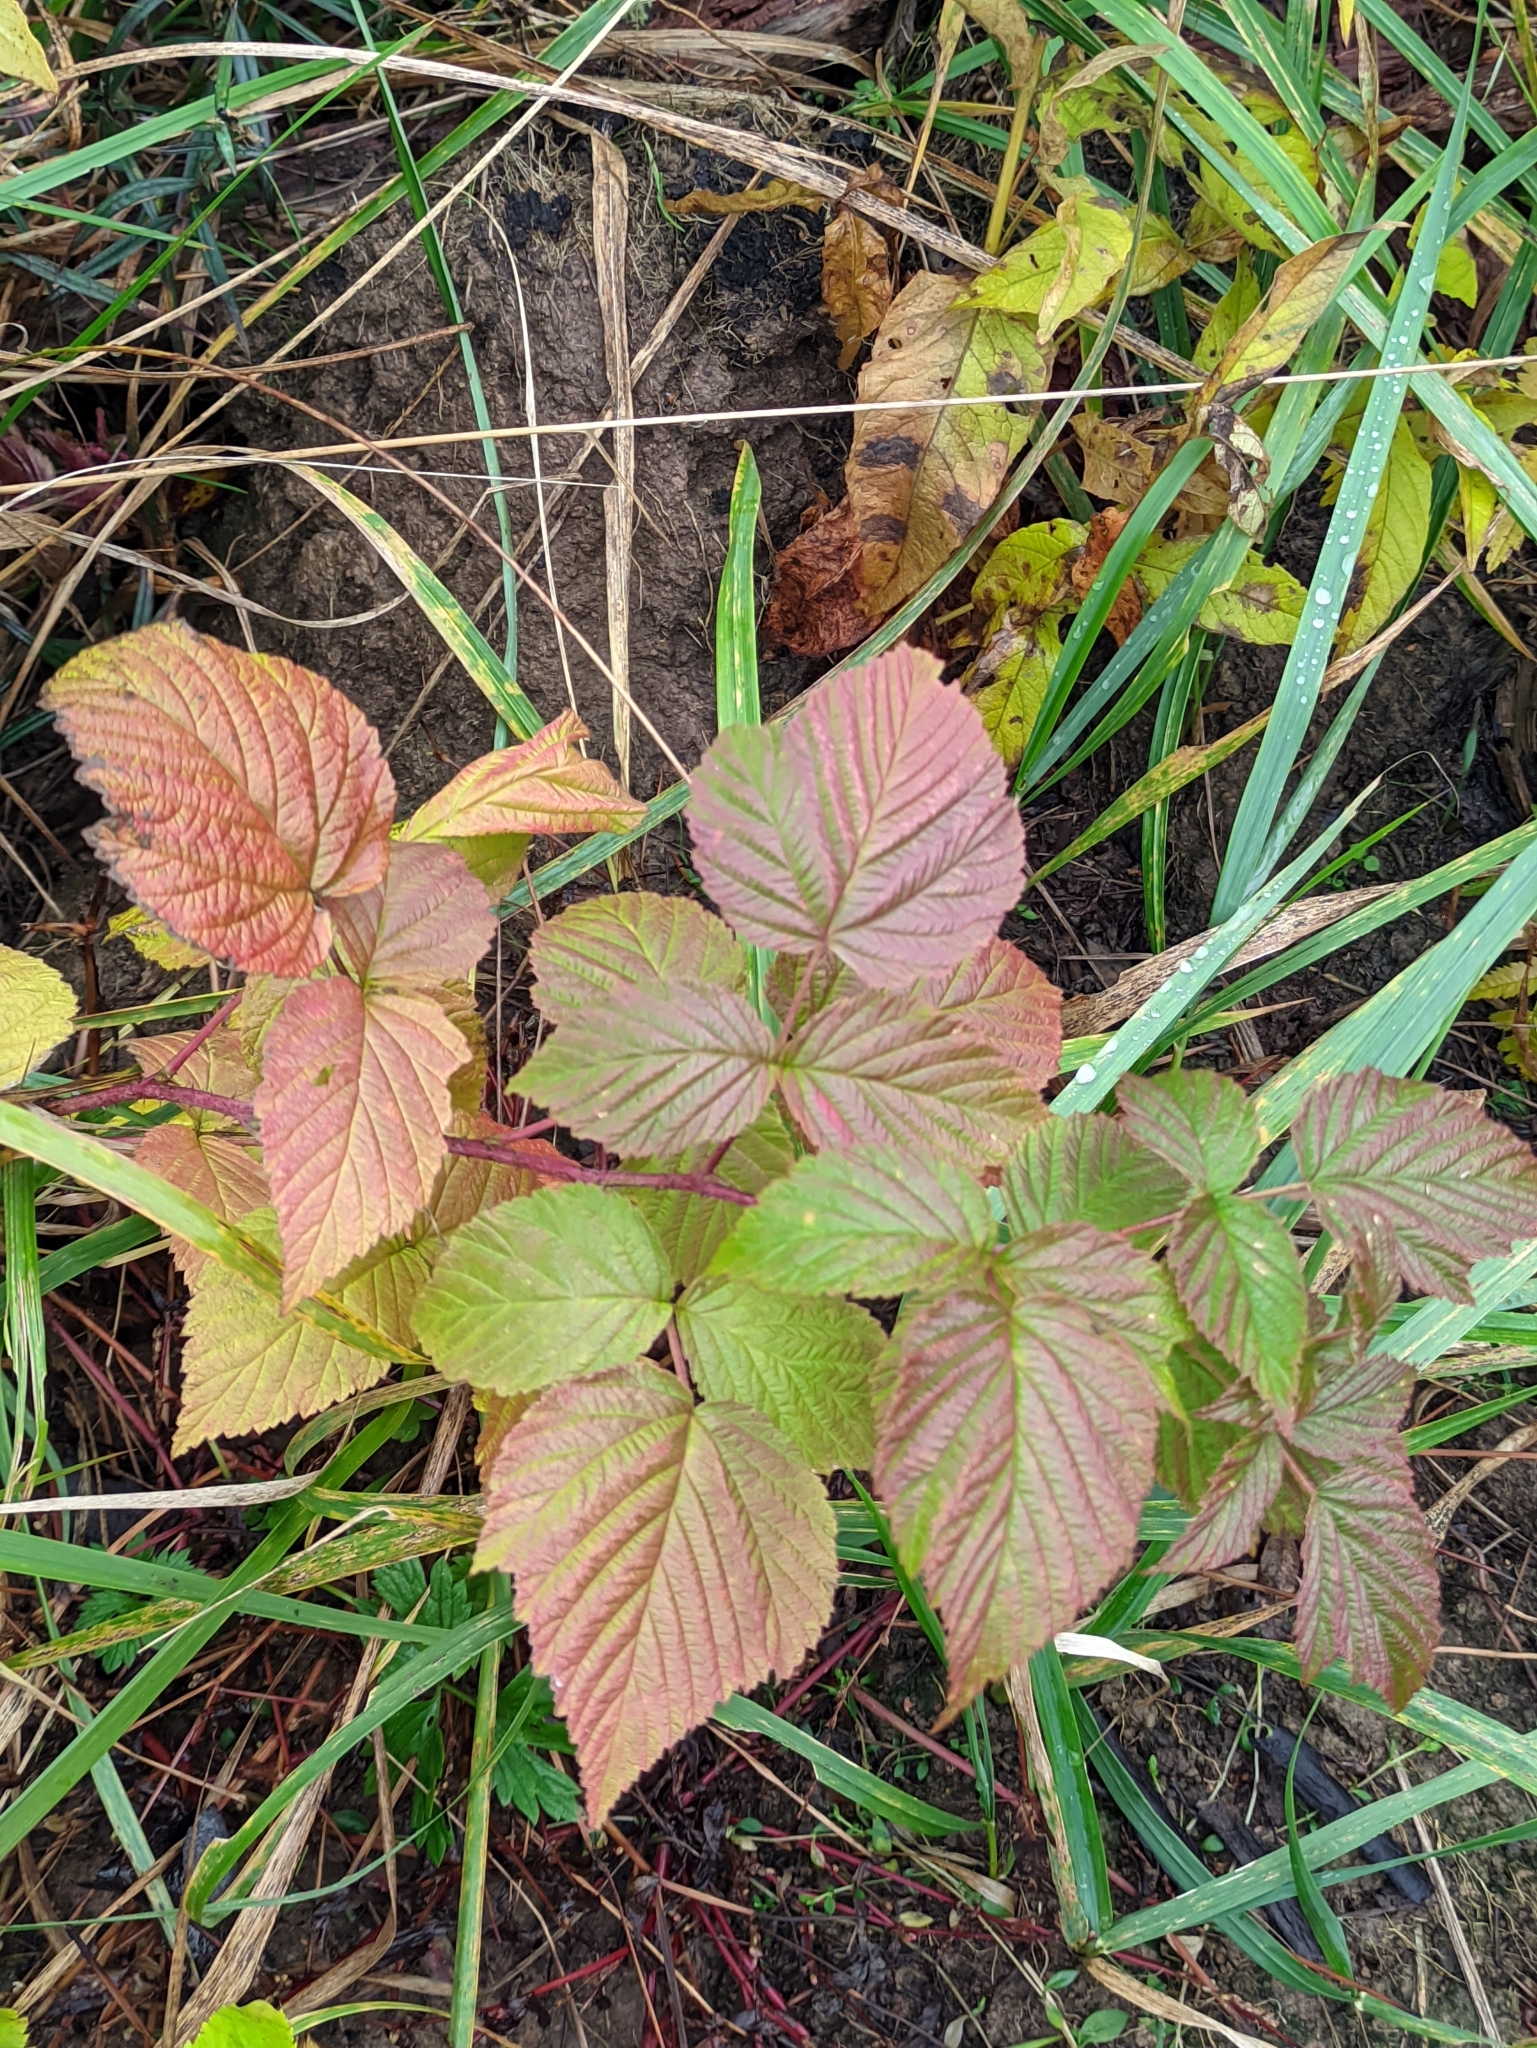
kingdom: Plantae
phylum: Tracheophyta
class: Magnoliopsida
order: Rosales
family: Rosaceae
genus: Rubus
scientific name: Rubus idaeus
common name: Raspberry
